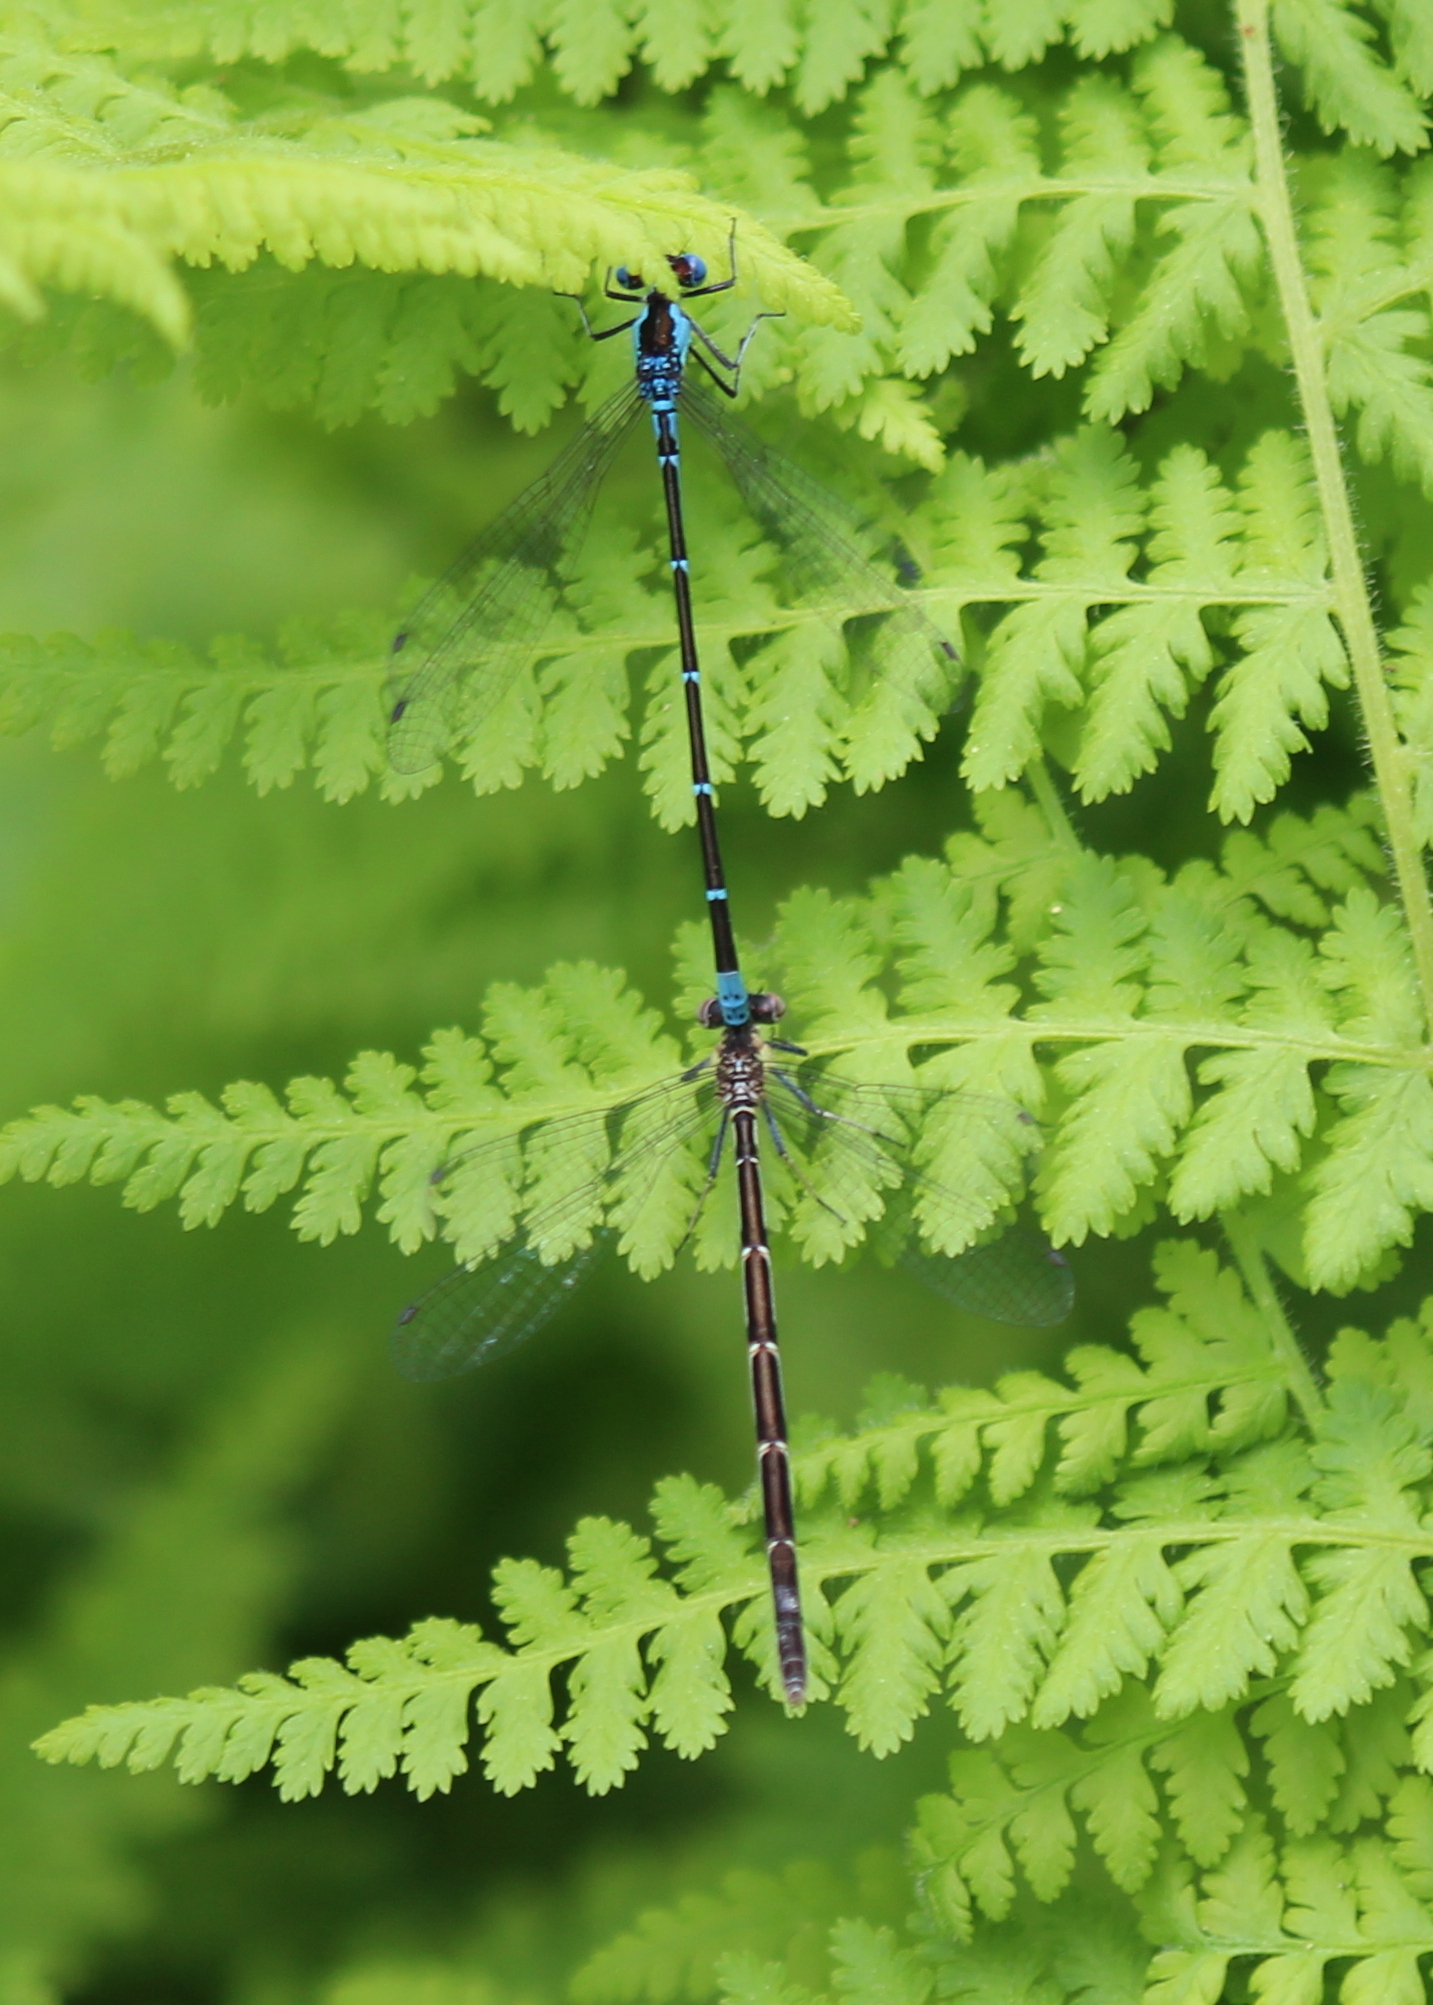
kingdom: Animalia
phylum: Arthropoda
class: Insecta
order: Odonata
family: Coenagrionidae
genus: Chromagrion
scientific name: Chromagrion conditum
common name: Aurora damsel
